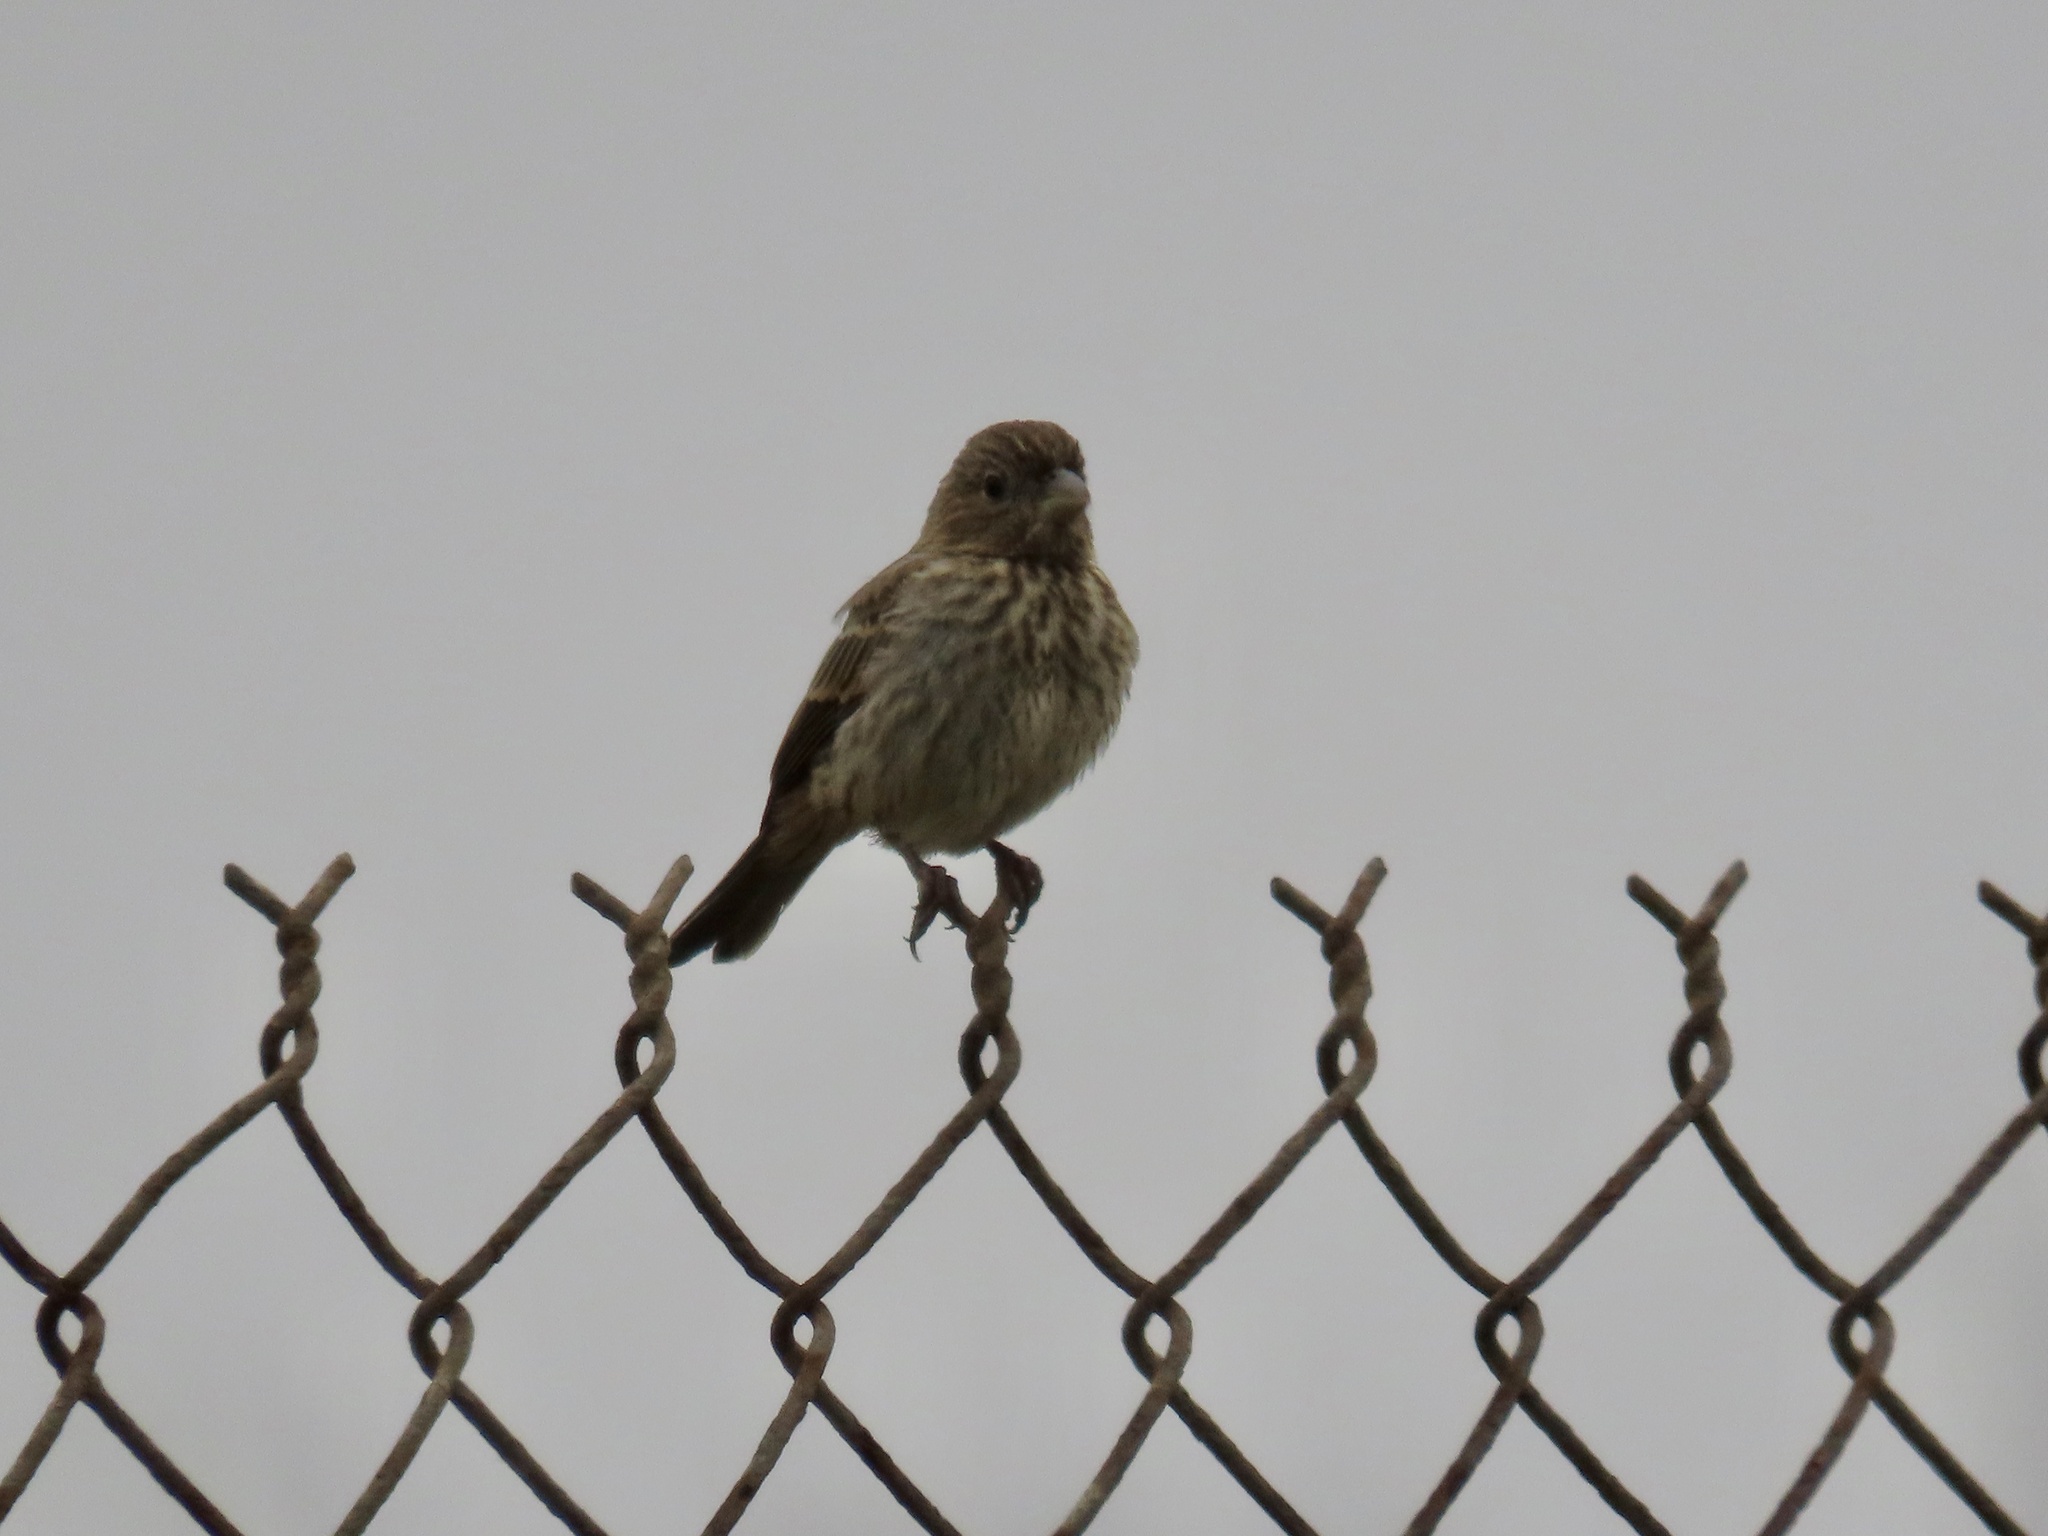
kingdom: Animalia
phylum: Chordata
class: Aves
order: Passeriformes
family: Fringillidae
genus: Haemorhous
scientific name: Haemorhous mexicanus
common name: House finch
